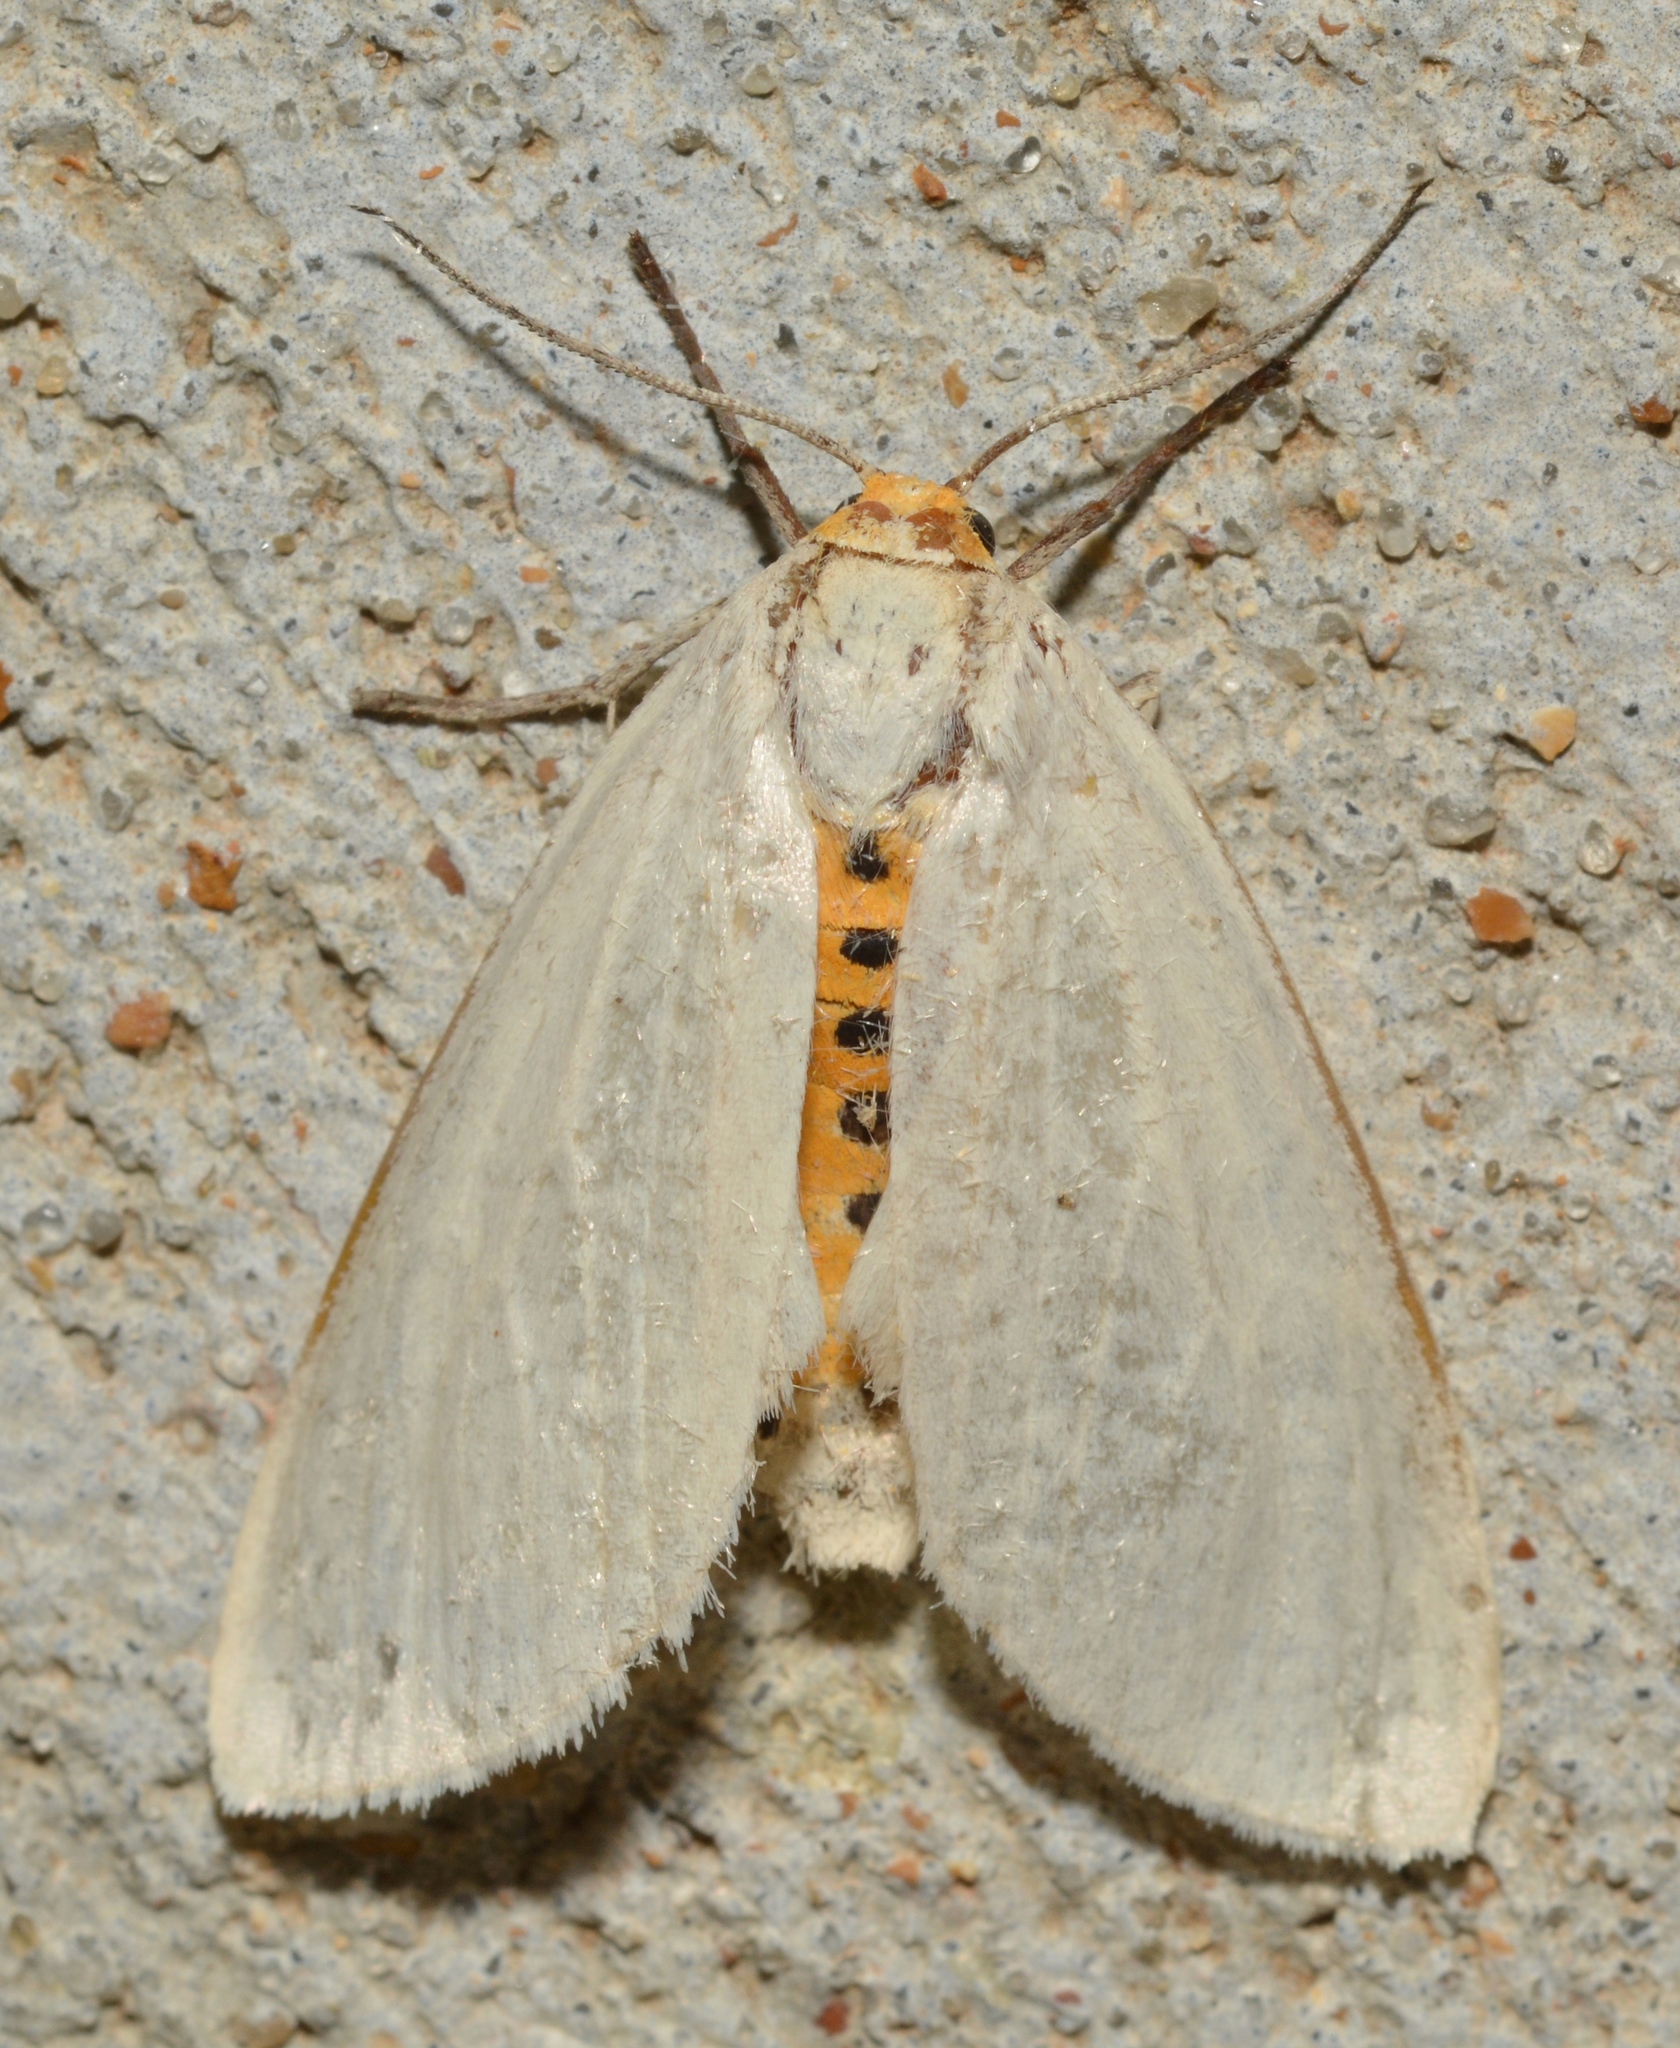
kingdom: Animalia
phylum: Arthropoda
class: Insecta
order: Lepidoptera
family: Erebidae
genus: Cycnia
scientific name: Cycnia oregonensis
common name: Oregon cycnia moth
